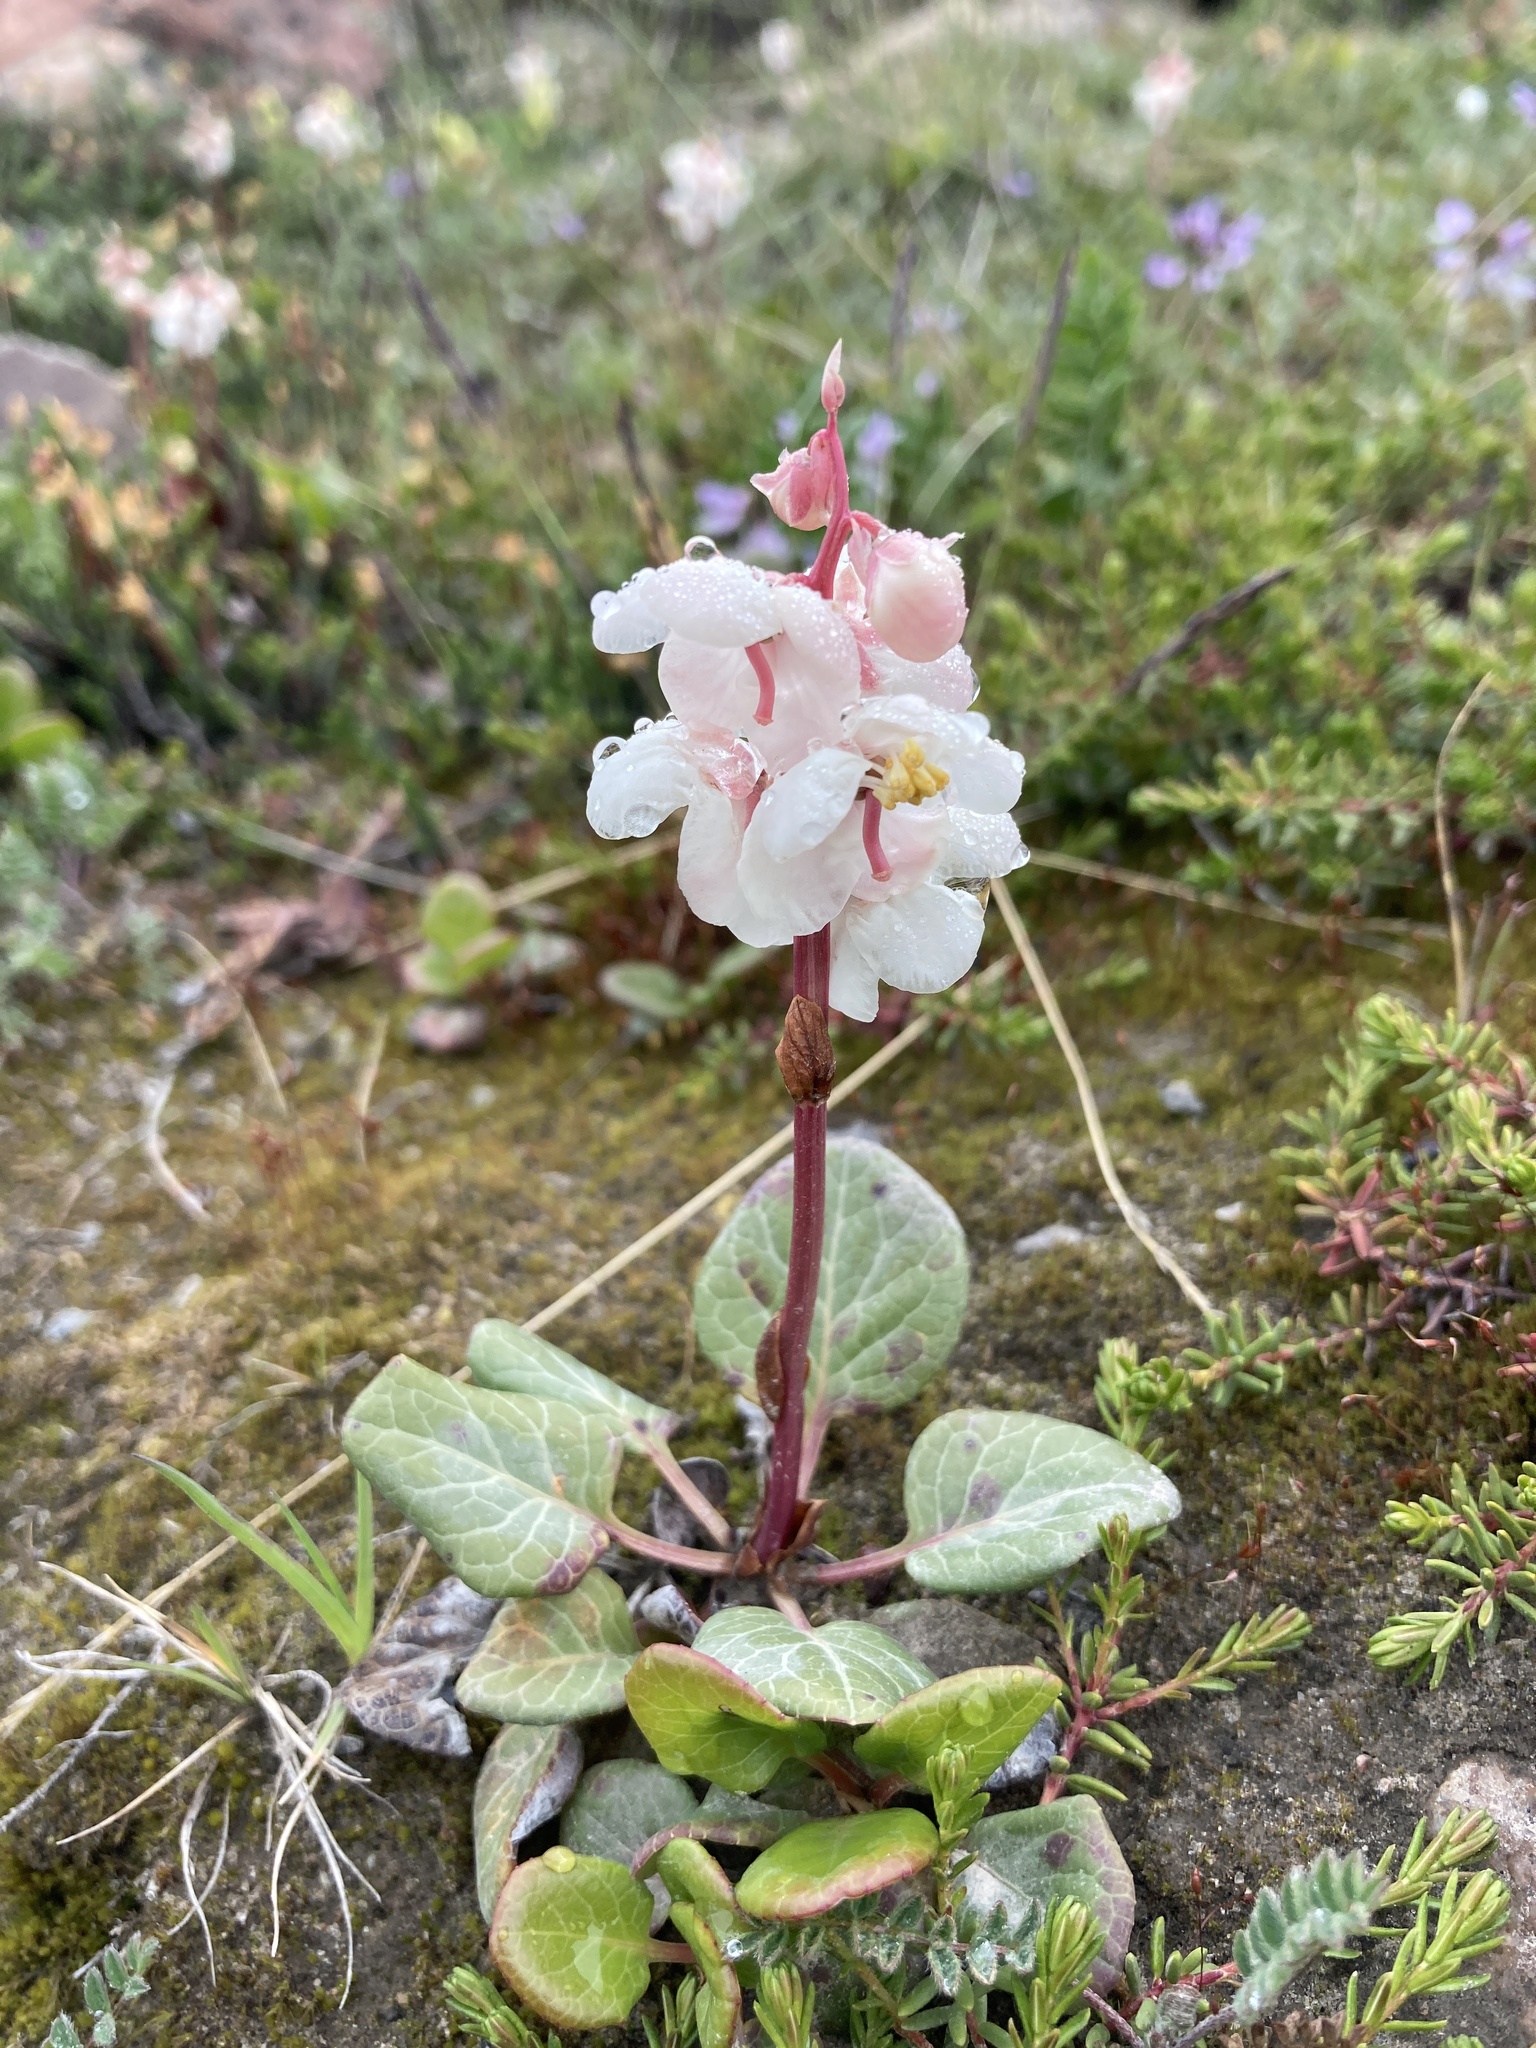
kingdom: Plantae
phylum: Tracheophyta
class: Magnoliopsida
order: Ericales
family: Ericaceae
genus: Pyrola
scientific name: Pyrola grandiflora
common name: Arctic pyrola
